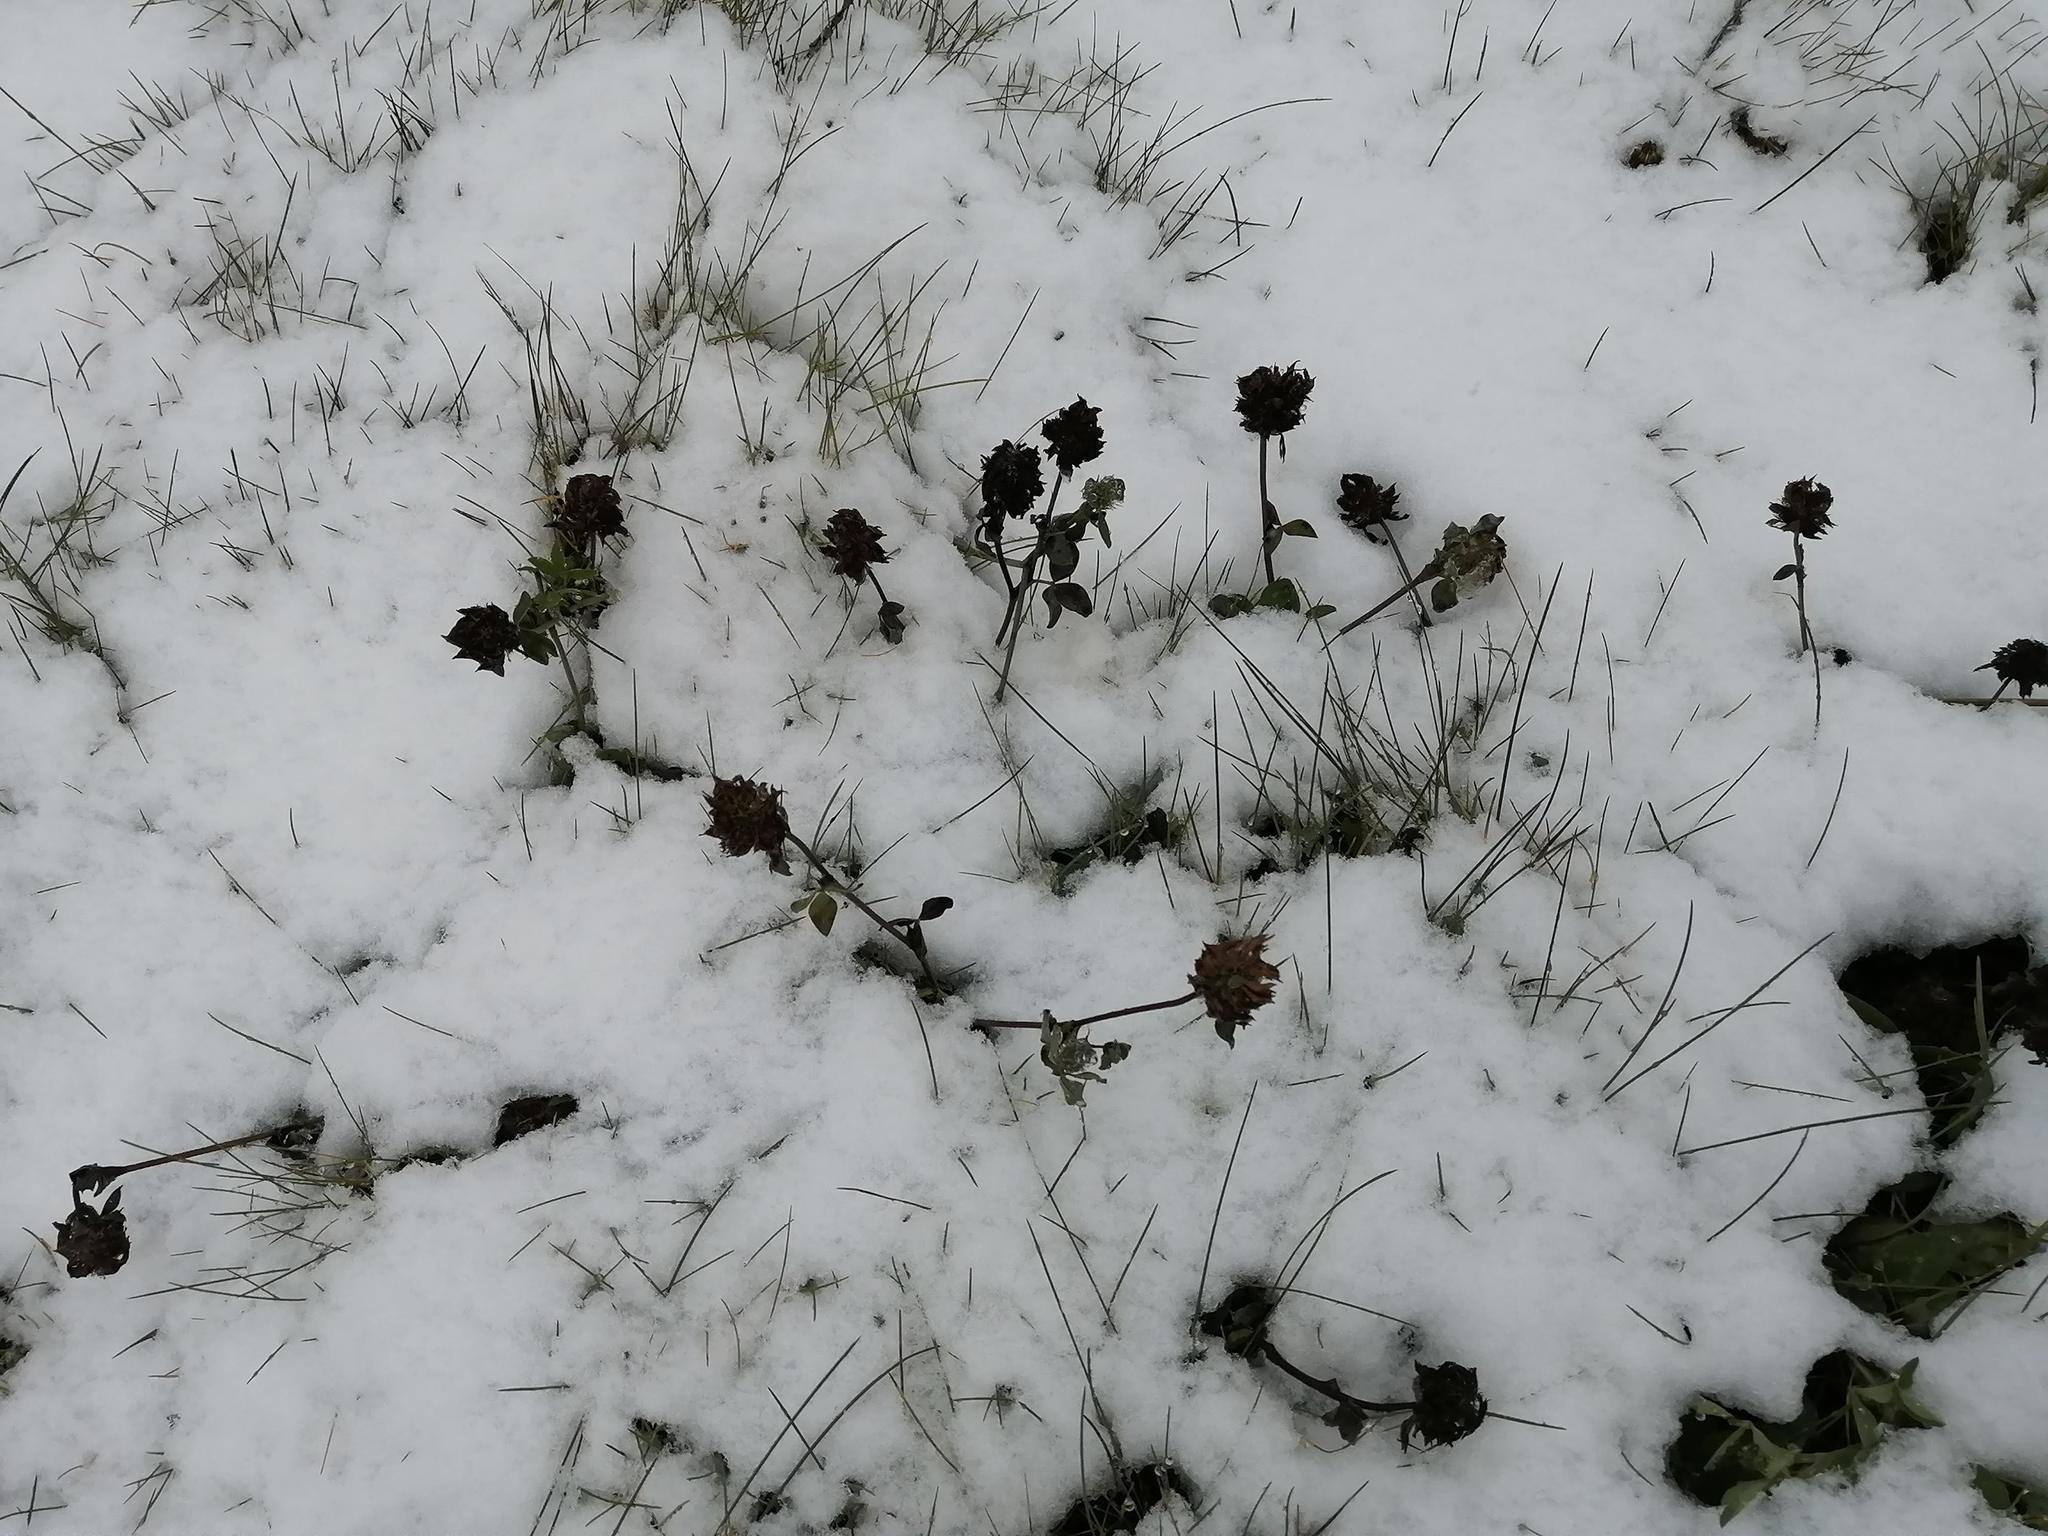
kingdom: Plantae
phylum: Tracheophyta
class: Magnoliopsida
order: Fabales
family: Fabaceae
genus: Trifolium
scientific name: Trifolium repens
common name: White clover
